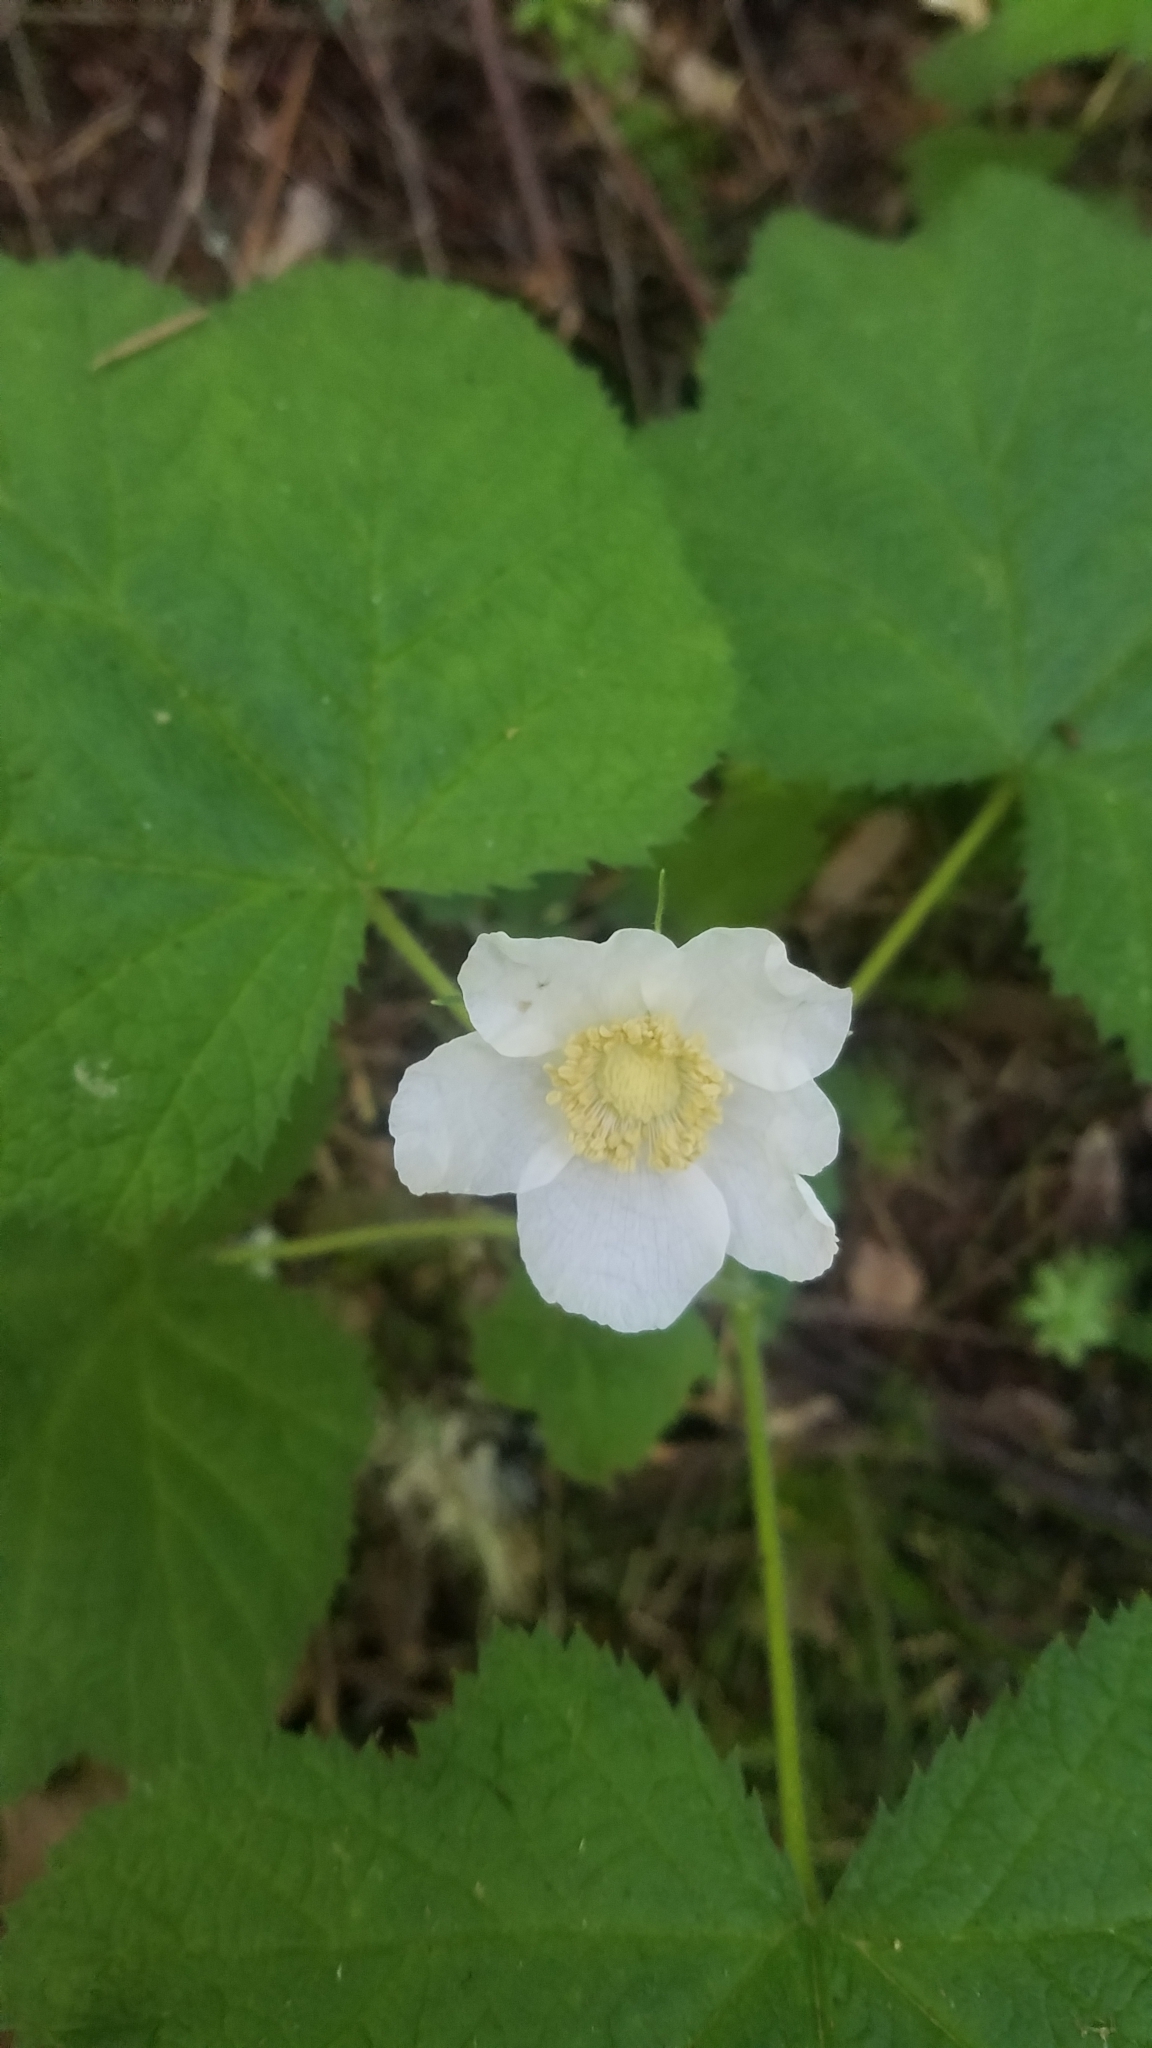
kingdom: Plantae
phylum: Tracheophyta
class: Magnoliopsida
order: Rosales
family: Rosaceae
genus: Rubus
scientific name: Rubus parviflorus
